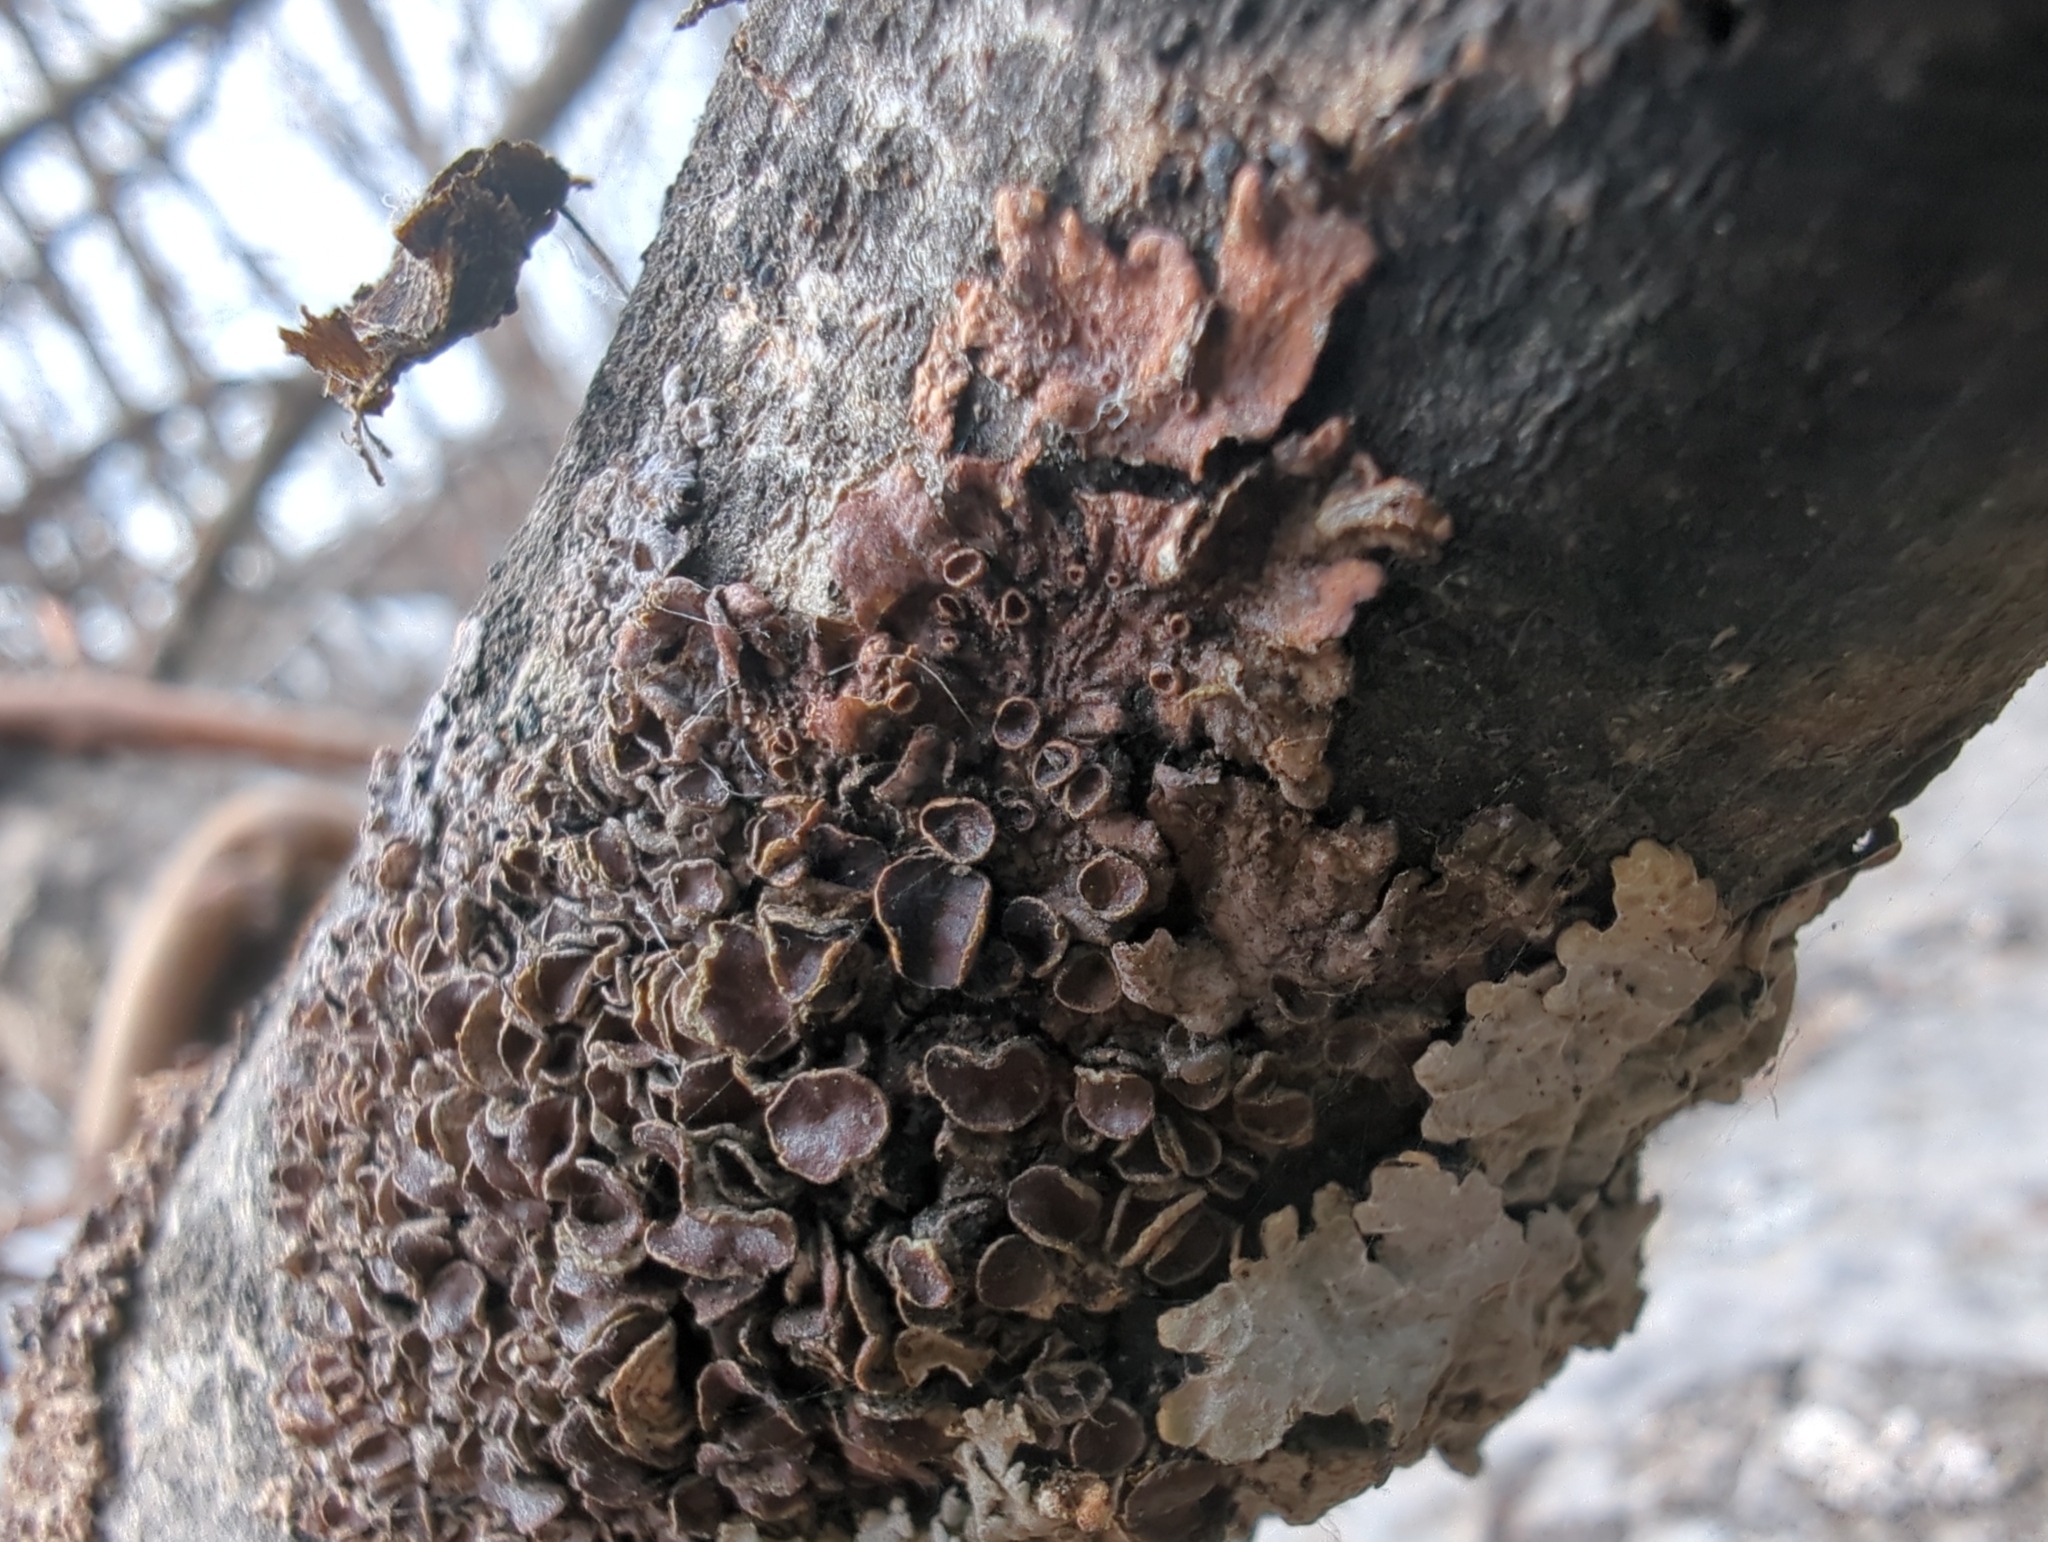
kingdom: Fungi
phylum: Ascomycota
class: Lecanoromycetes
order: Lecanorales
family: Parmeliaceae
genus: Melanohalea
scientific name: Melanohalea septentrionalis
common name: Northern camouflage lichen
